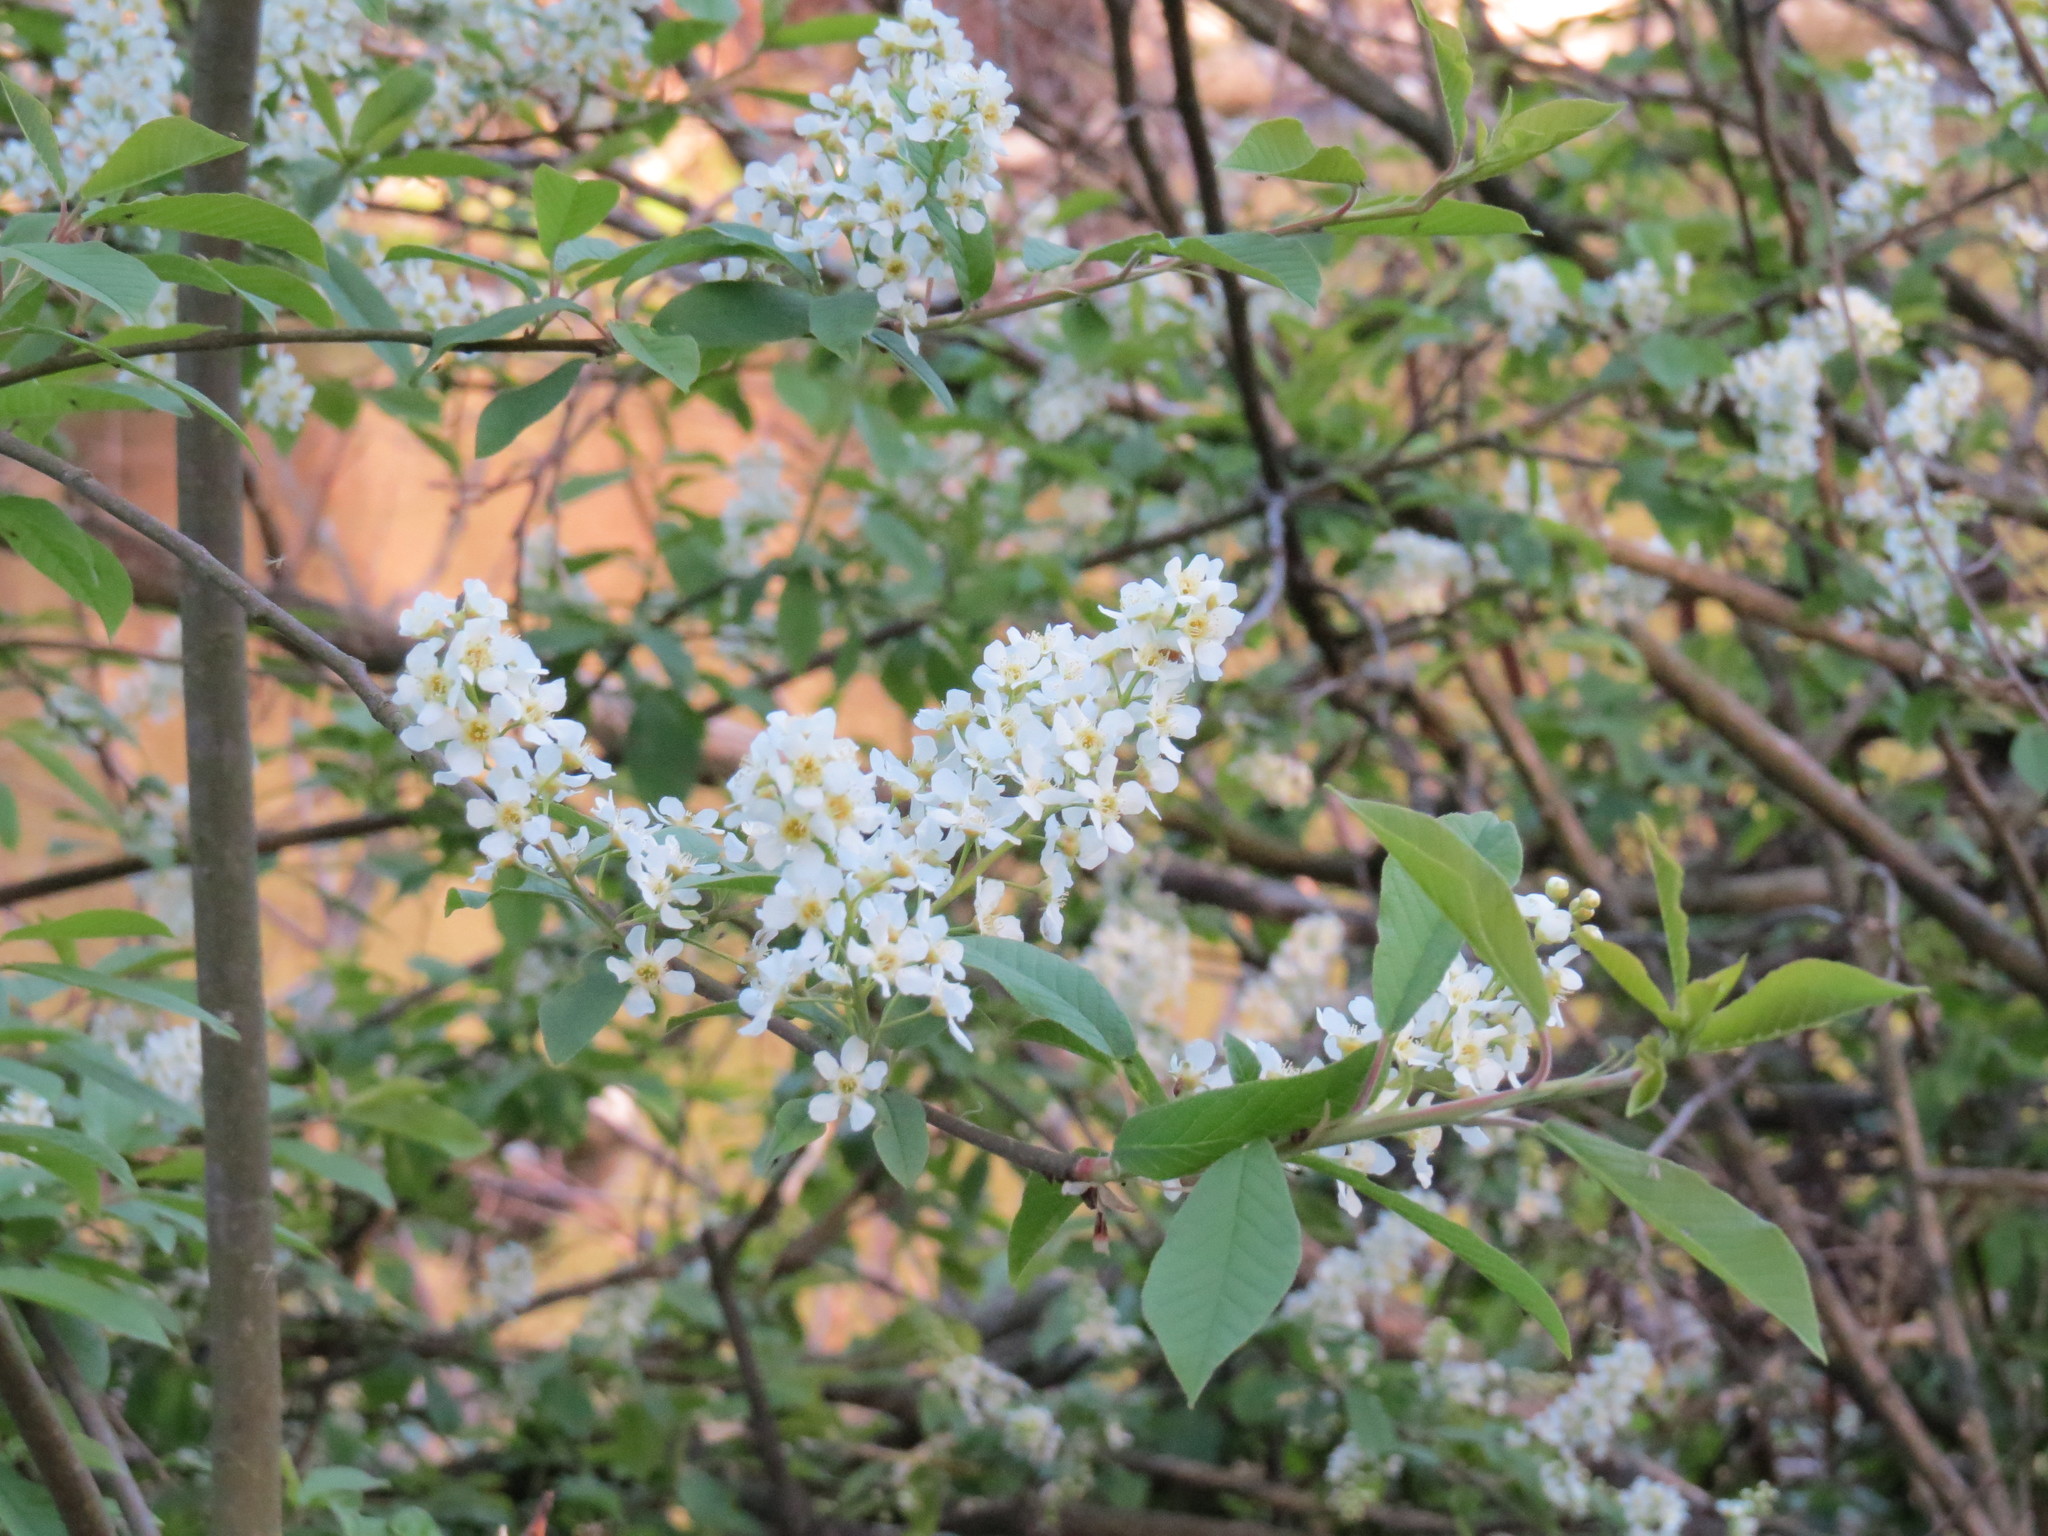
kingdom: Plantae
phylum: Tracheophyta
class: Magnoliopsida
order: Rosales
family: Rosaceae
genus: Prunus
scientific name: Prunus padus
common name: Bird cherry
